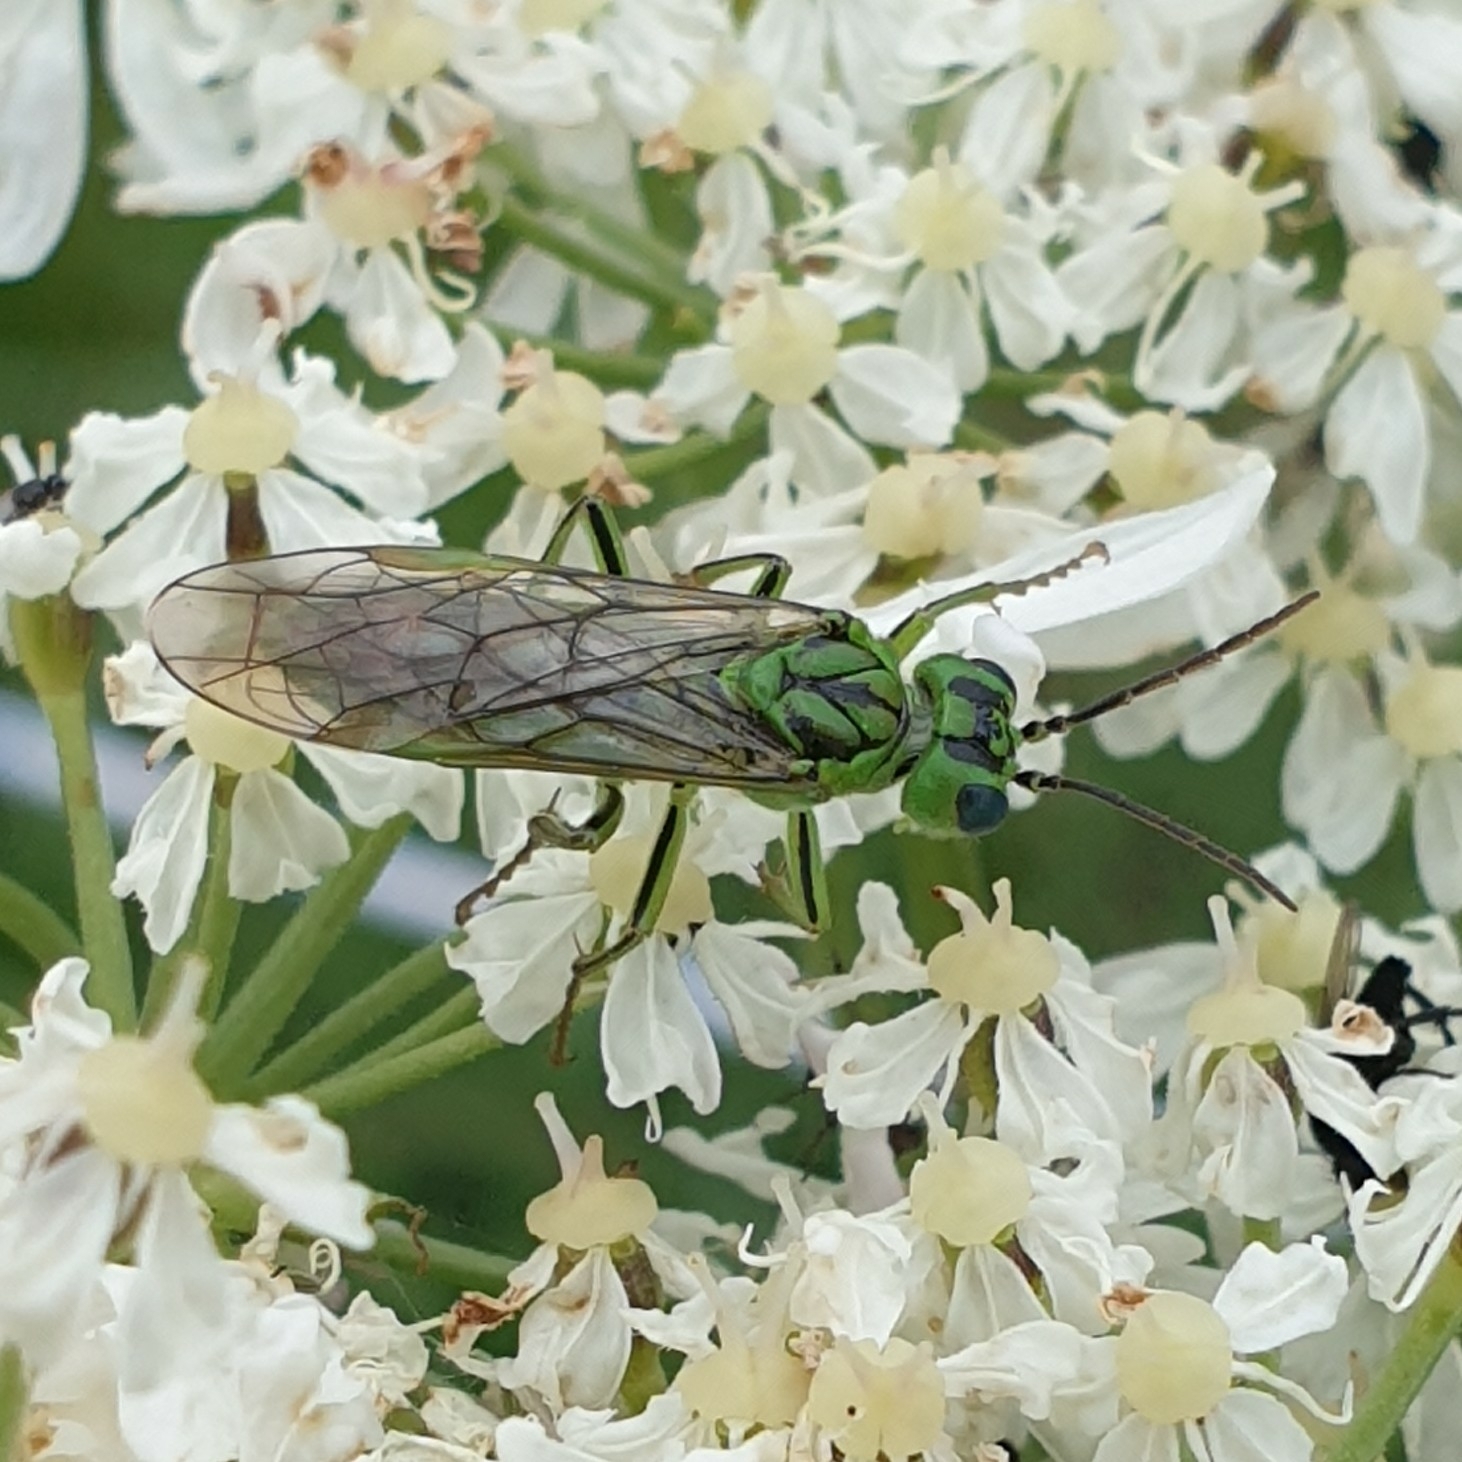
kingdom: Animalia
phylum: Arthropoda
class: Insecta
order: Hymenoptera
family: Tenthredinidae
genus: Tenthredo
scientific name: Tenthredo olivacea
